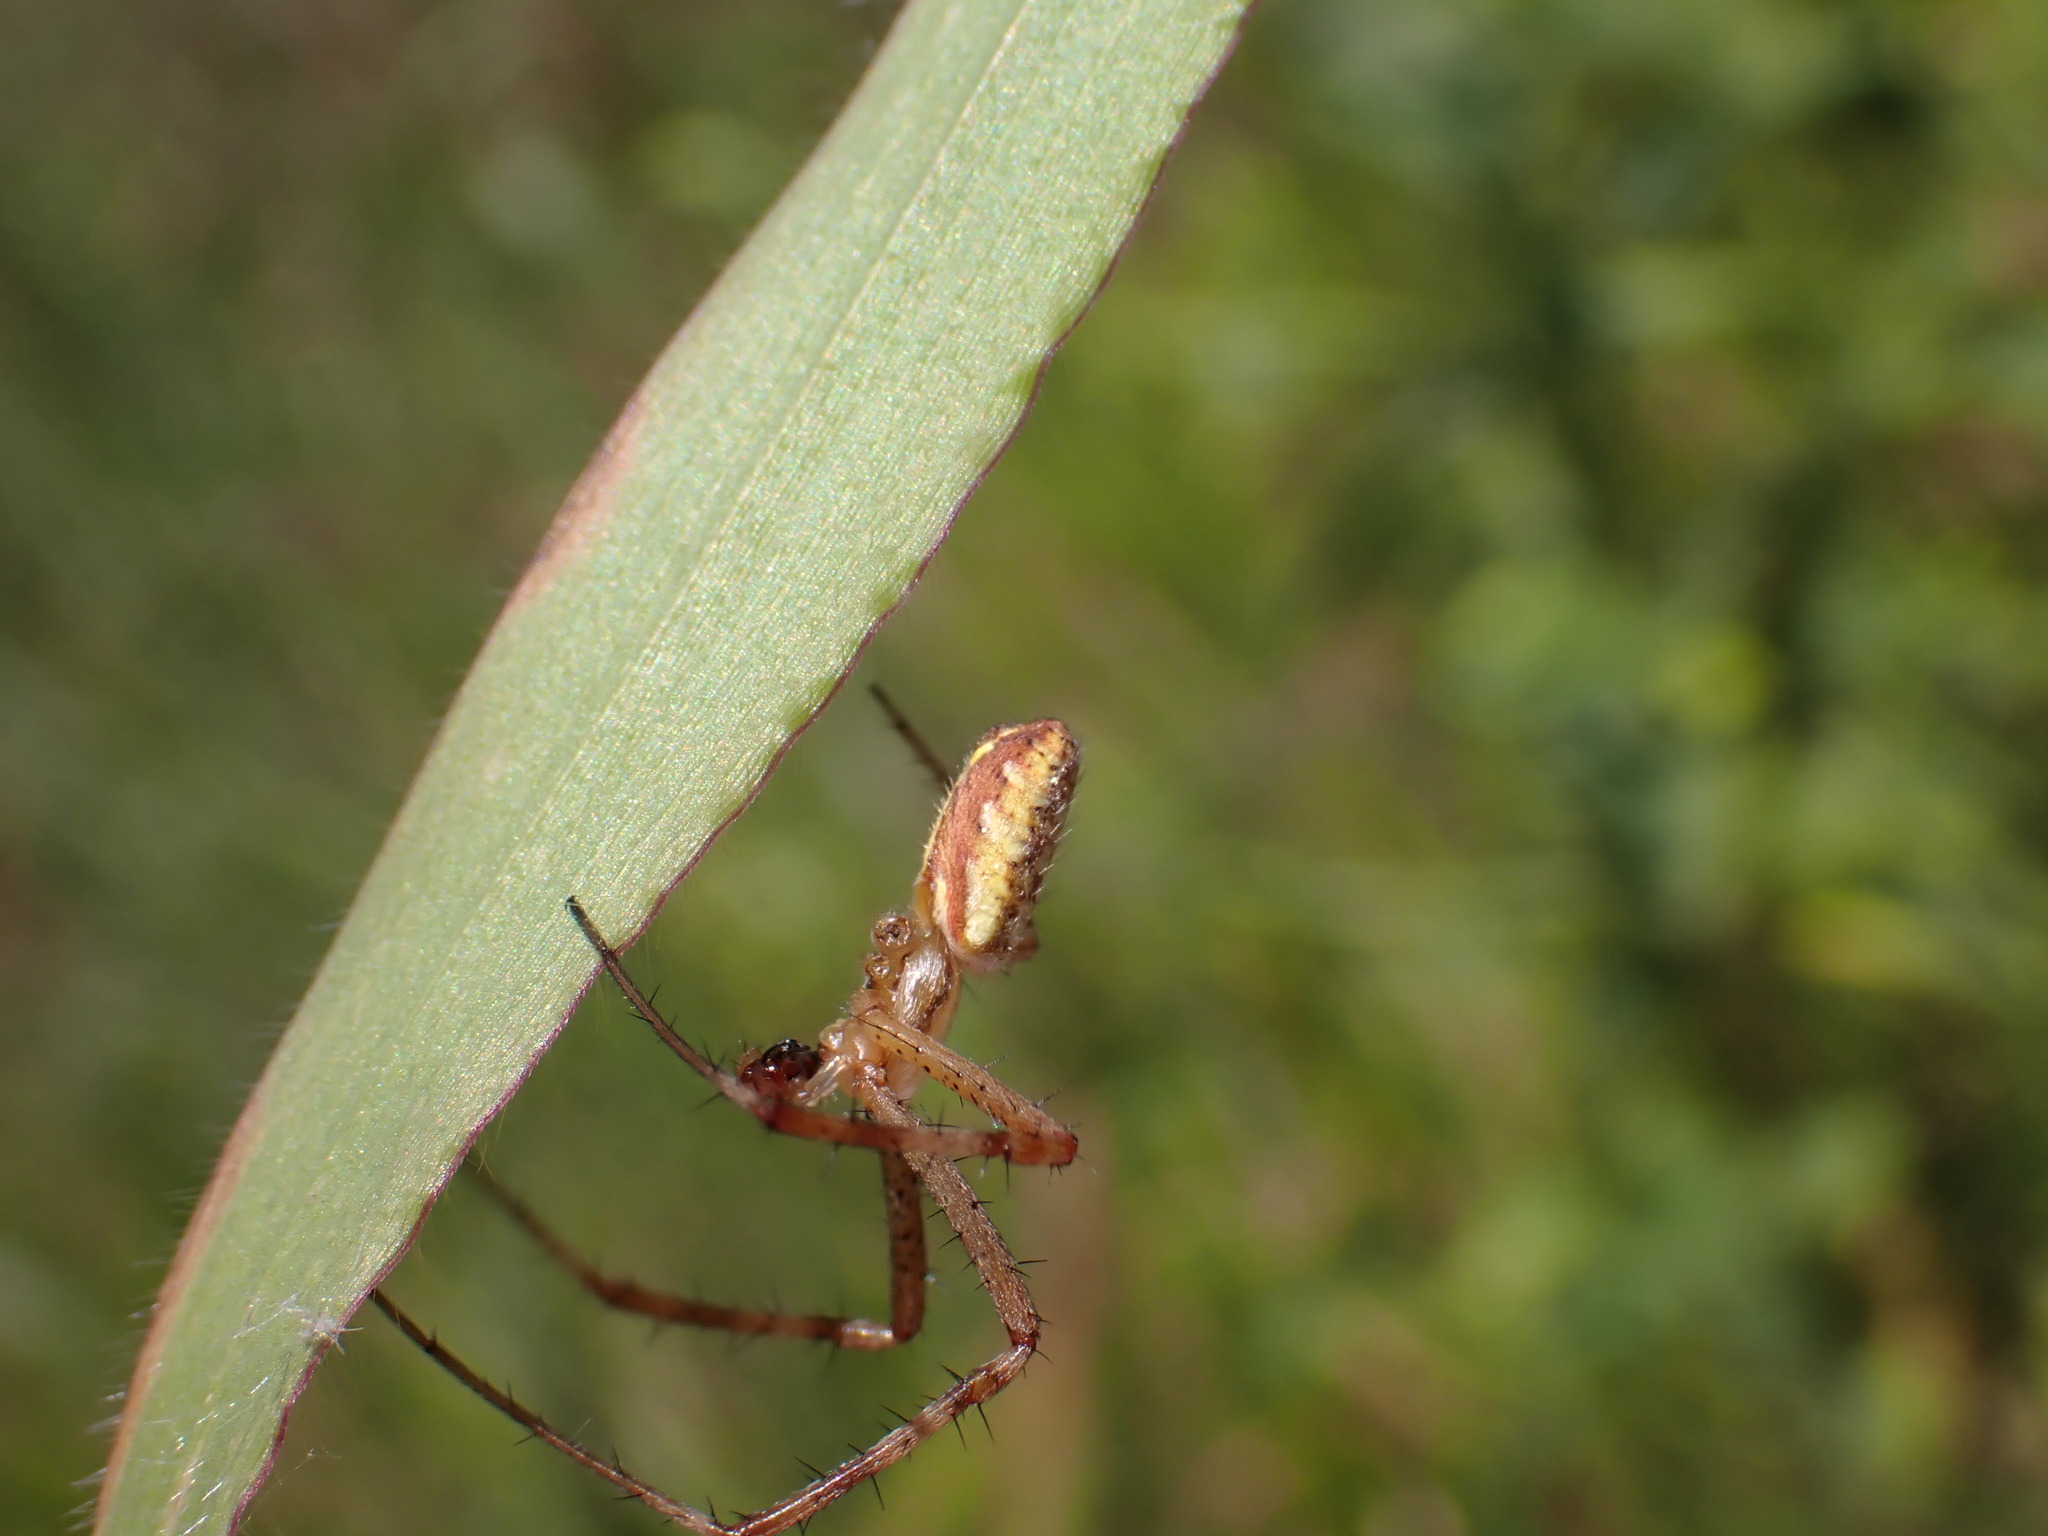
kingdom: Animalia
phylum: Arthropoda
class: Arachnida
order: Araneae
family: Araneidae
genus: Argiope
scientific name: Argiope bruennichi
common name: Wasp spider
